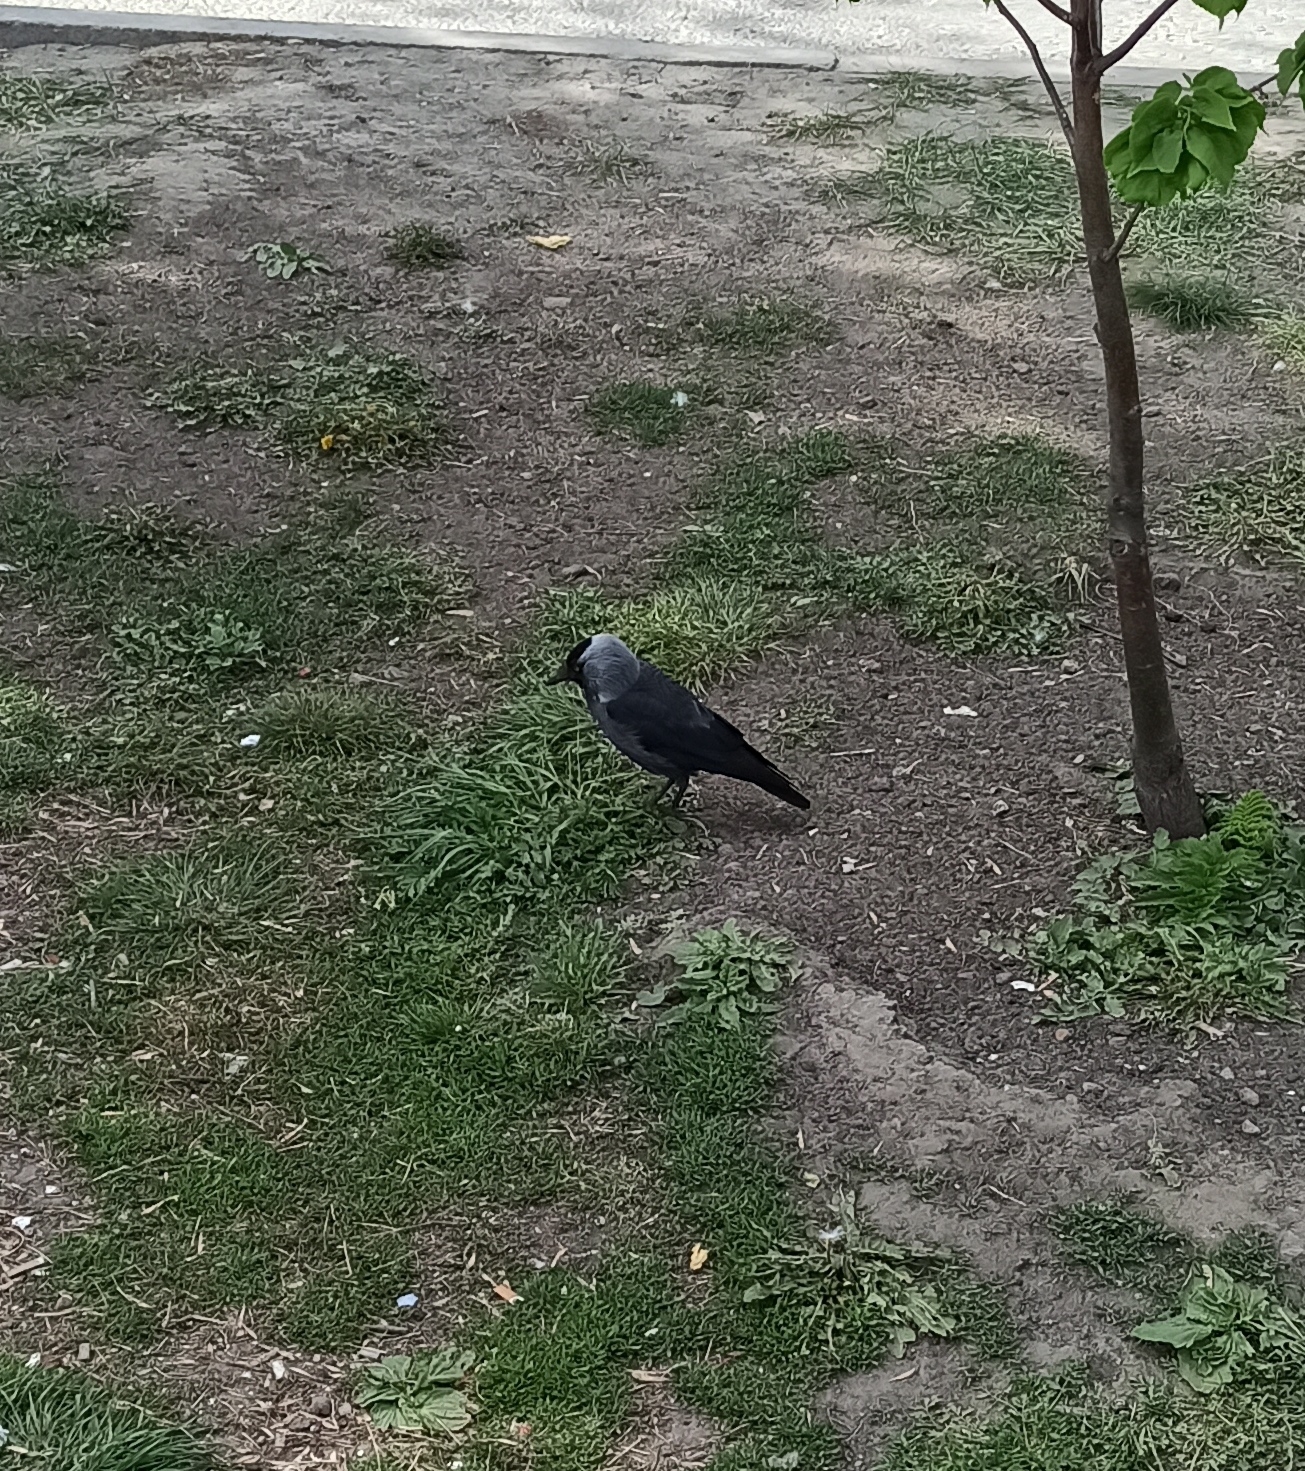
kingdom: Animalia
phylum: Chordata
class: Aves
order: Passeriformes
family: Corvidae
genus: Coloeus
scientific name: Coloeus monedula
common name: Western jackdaw
